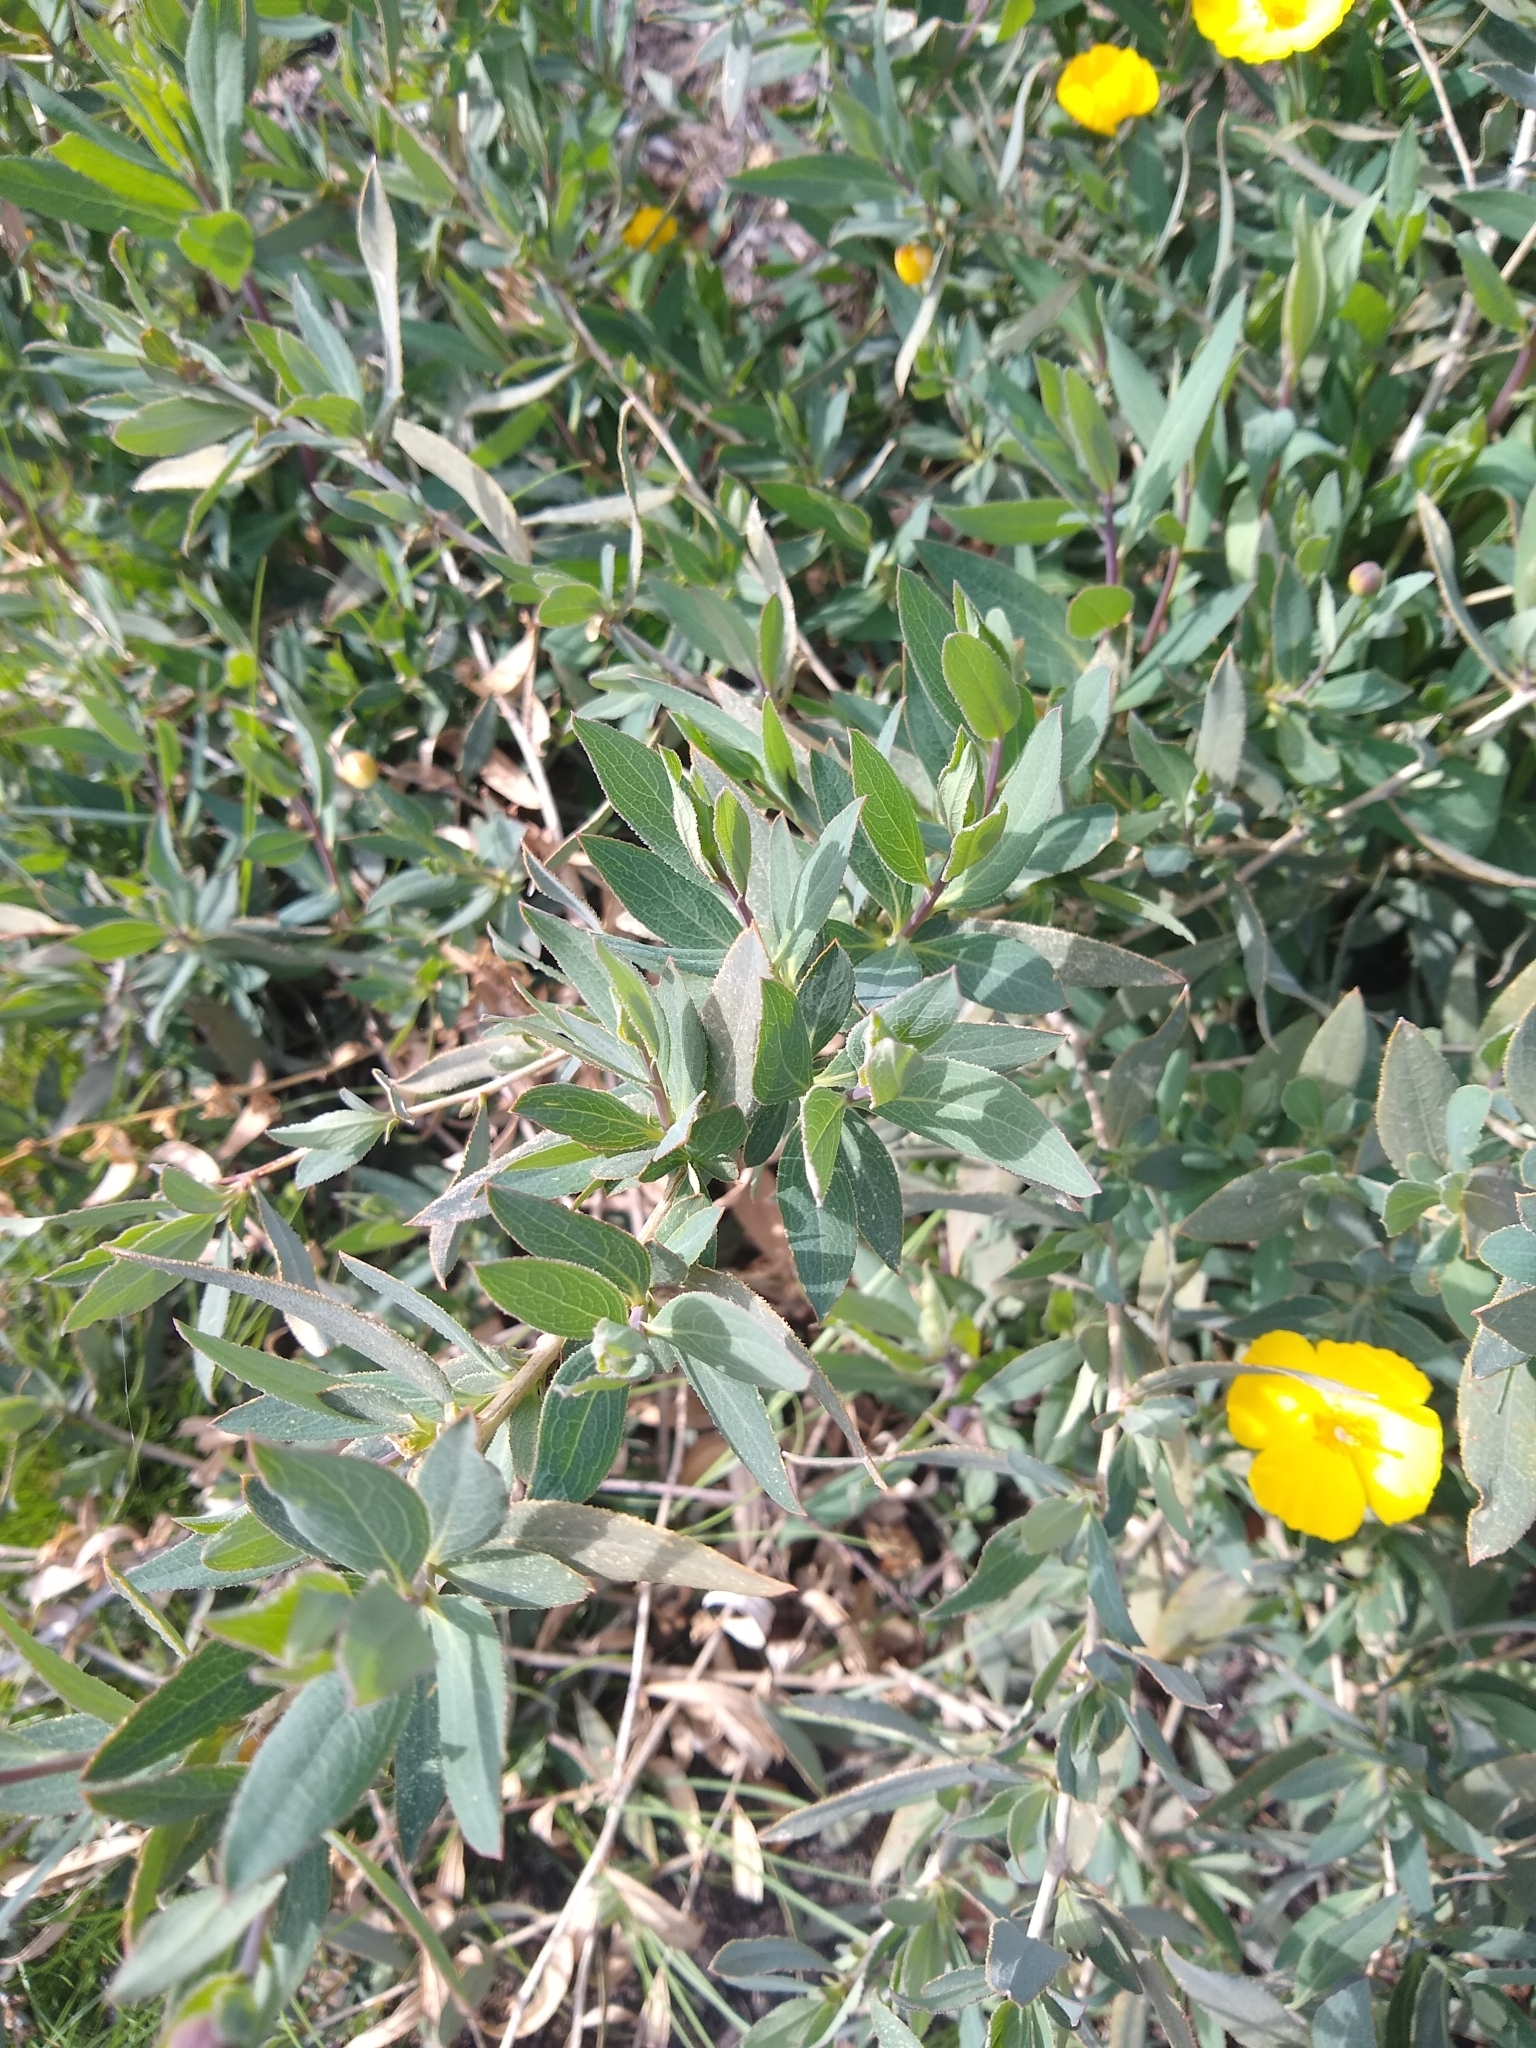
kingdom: Plantae
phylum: Tracheophyta
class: Magnoliopsida
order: Ranunculales
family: Papaveraceae
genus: Dendromecon
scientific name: Dendromecon rigida
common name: Tree poppy
